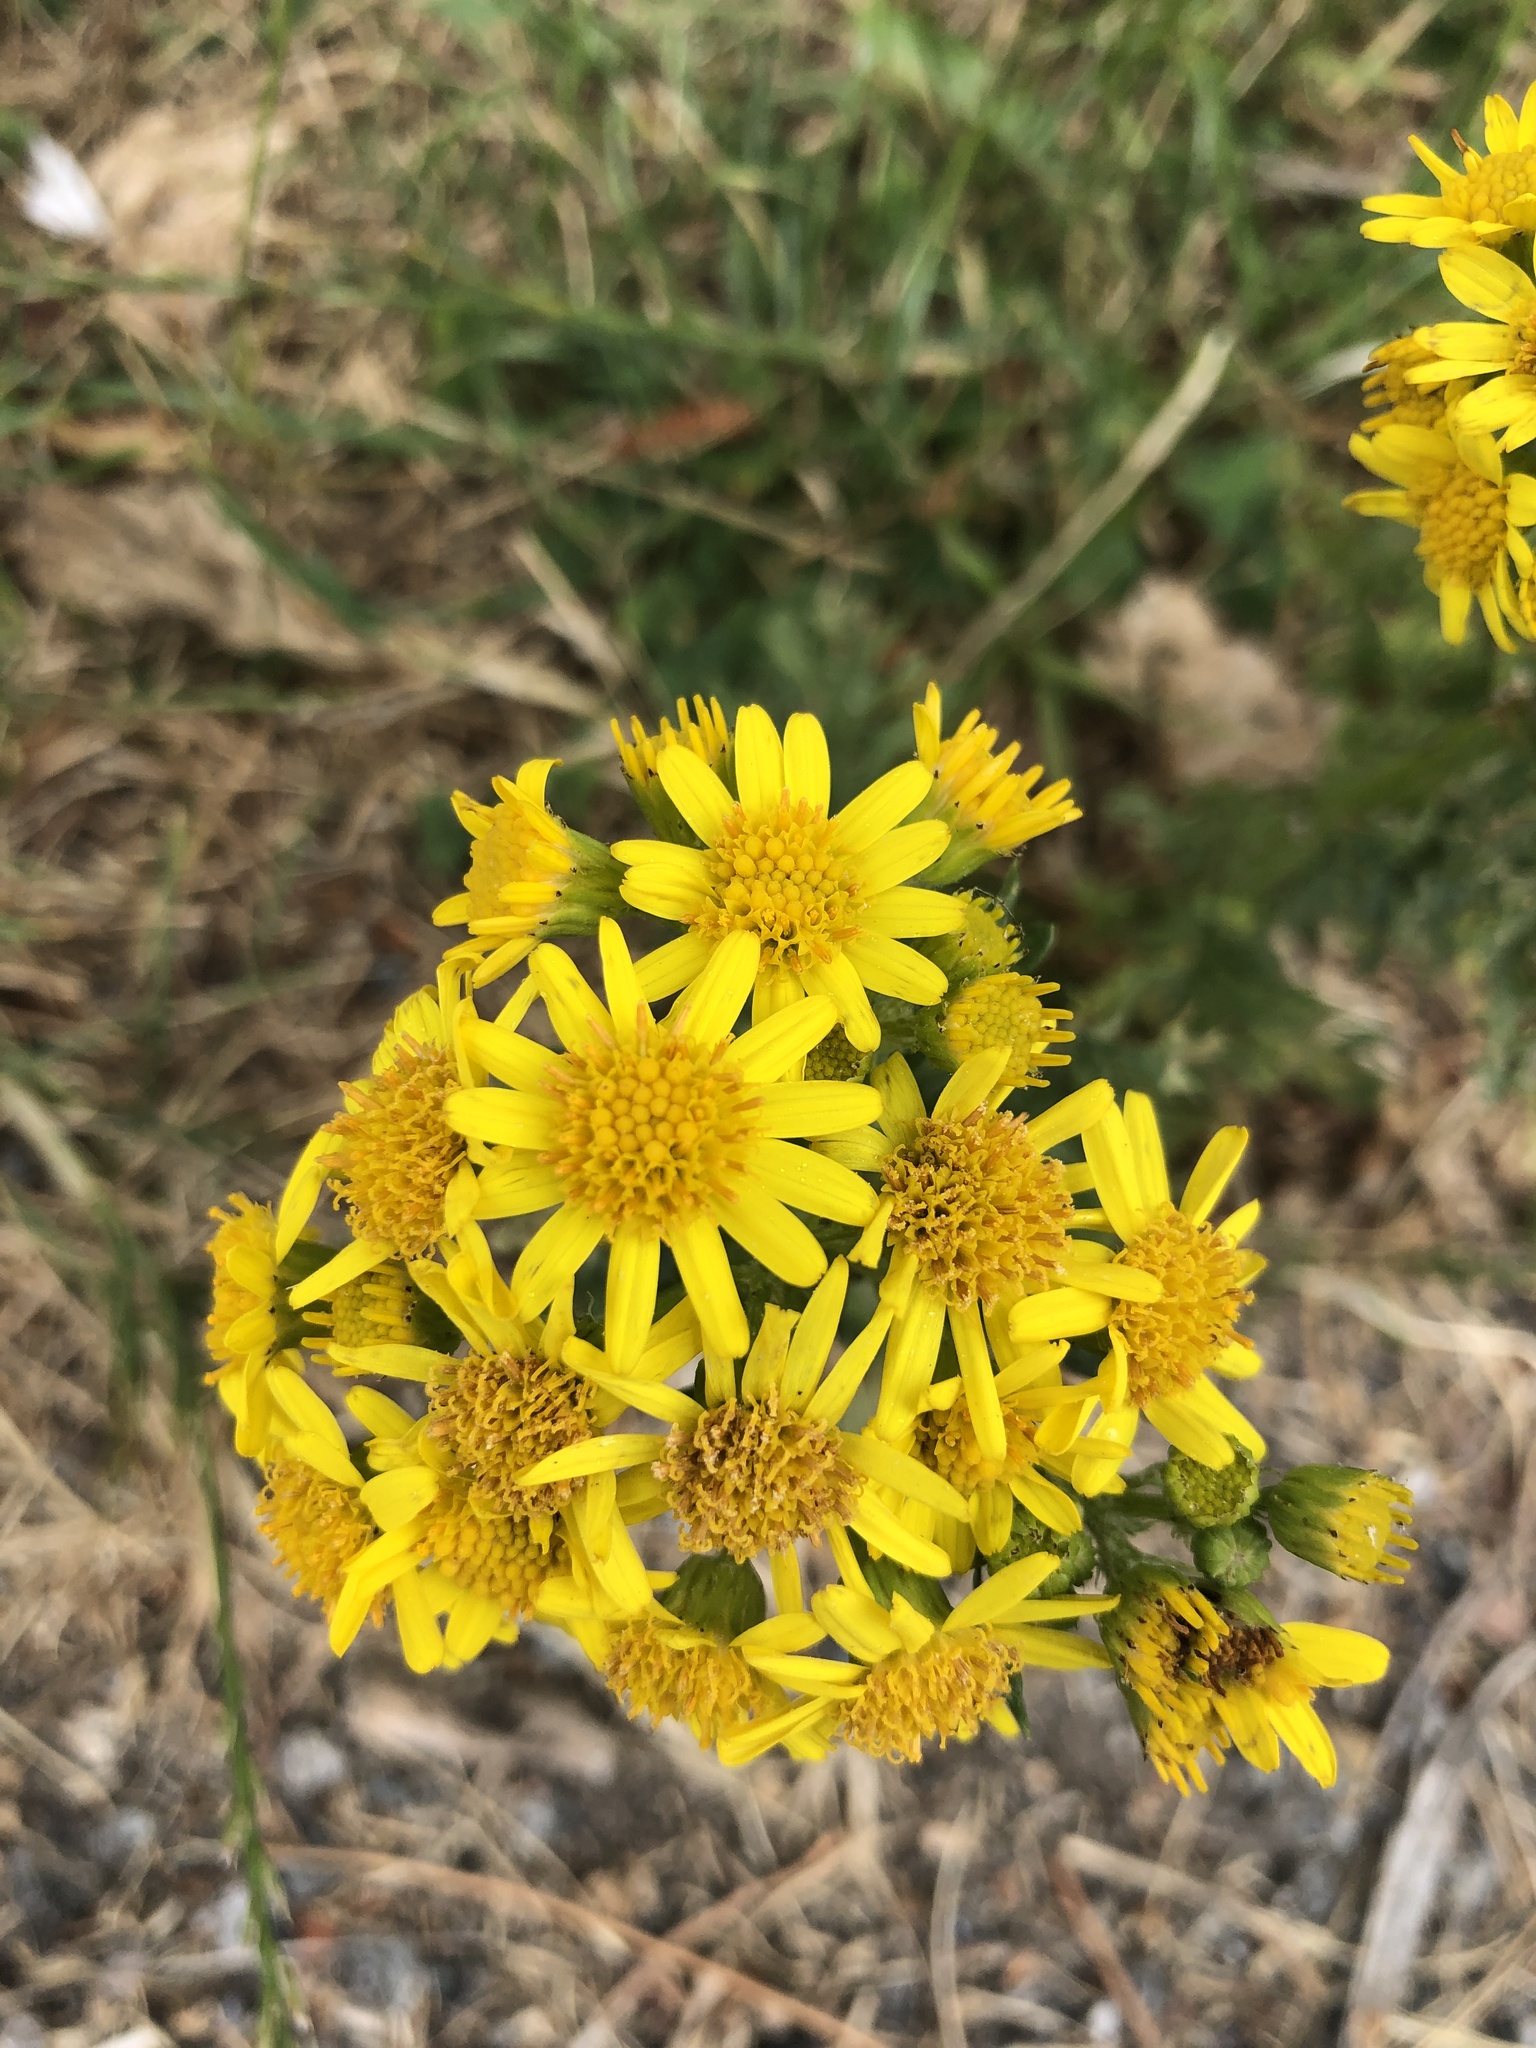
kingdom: Plantae
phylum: Tracheophyta
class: Magnoliopsida
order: Asterales
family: Asteraceae
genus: Jacobaea
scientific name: Jacobaea vulgaris
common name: Stinking willie
